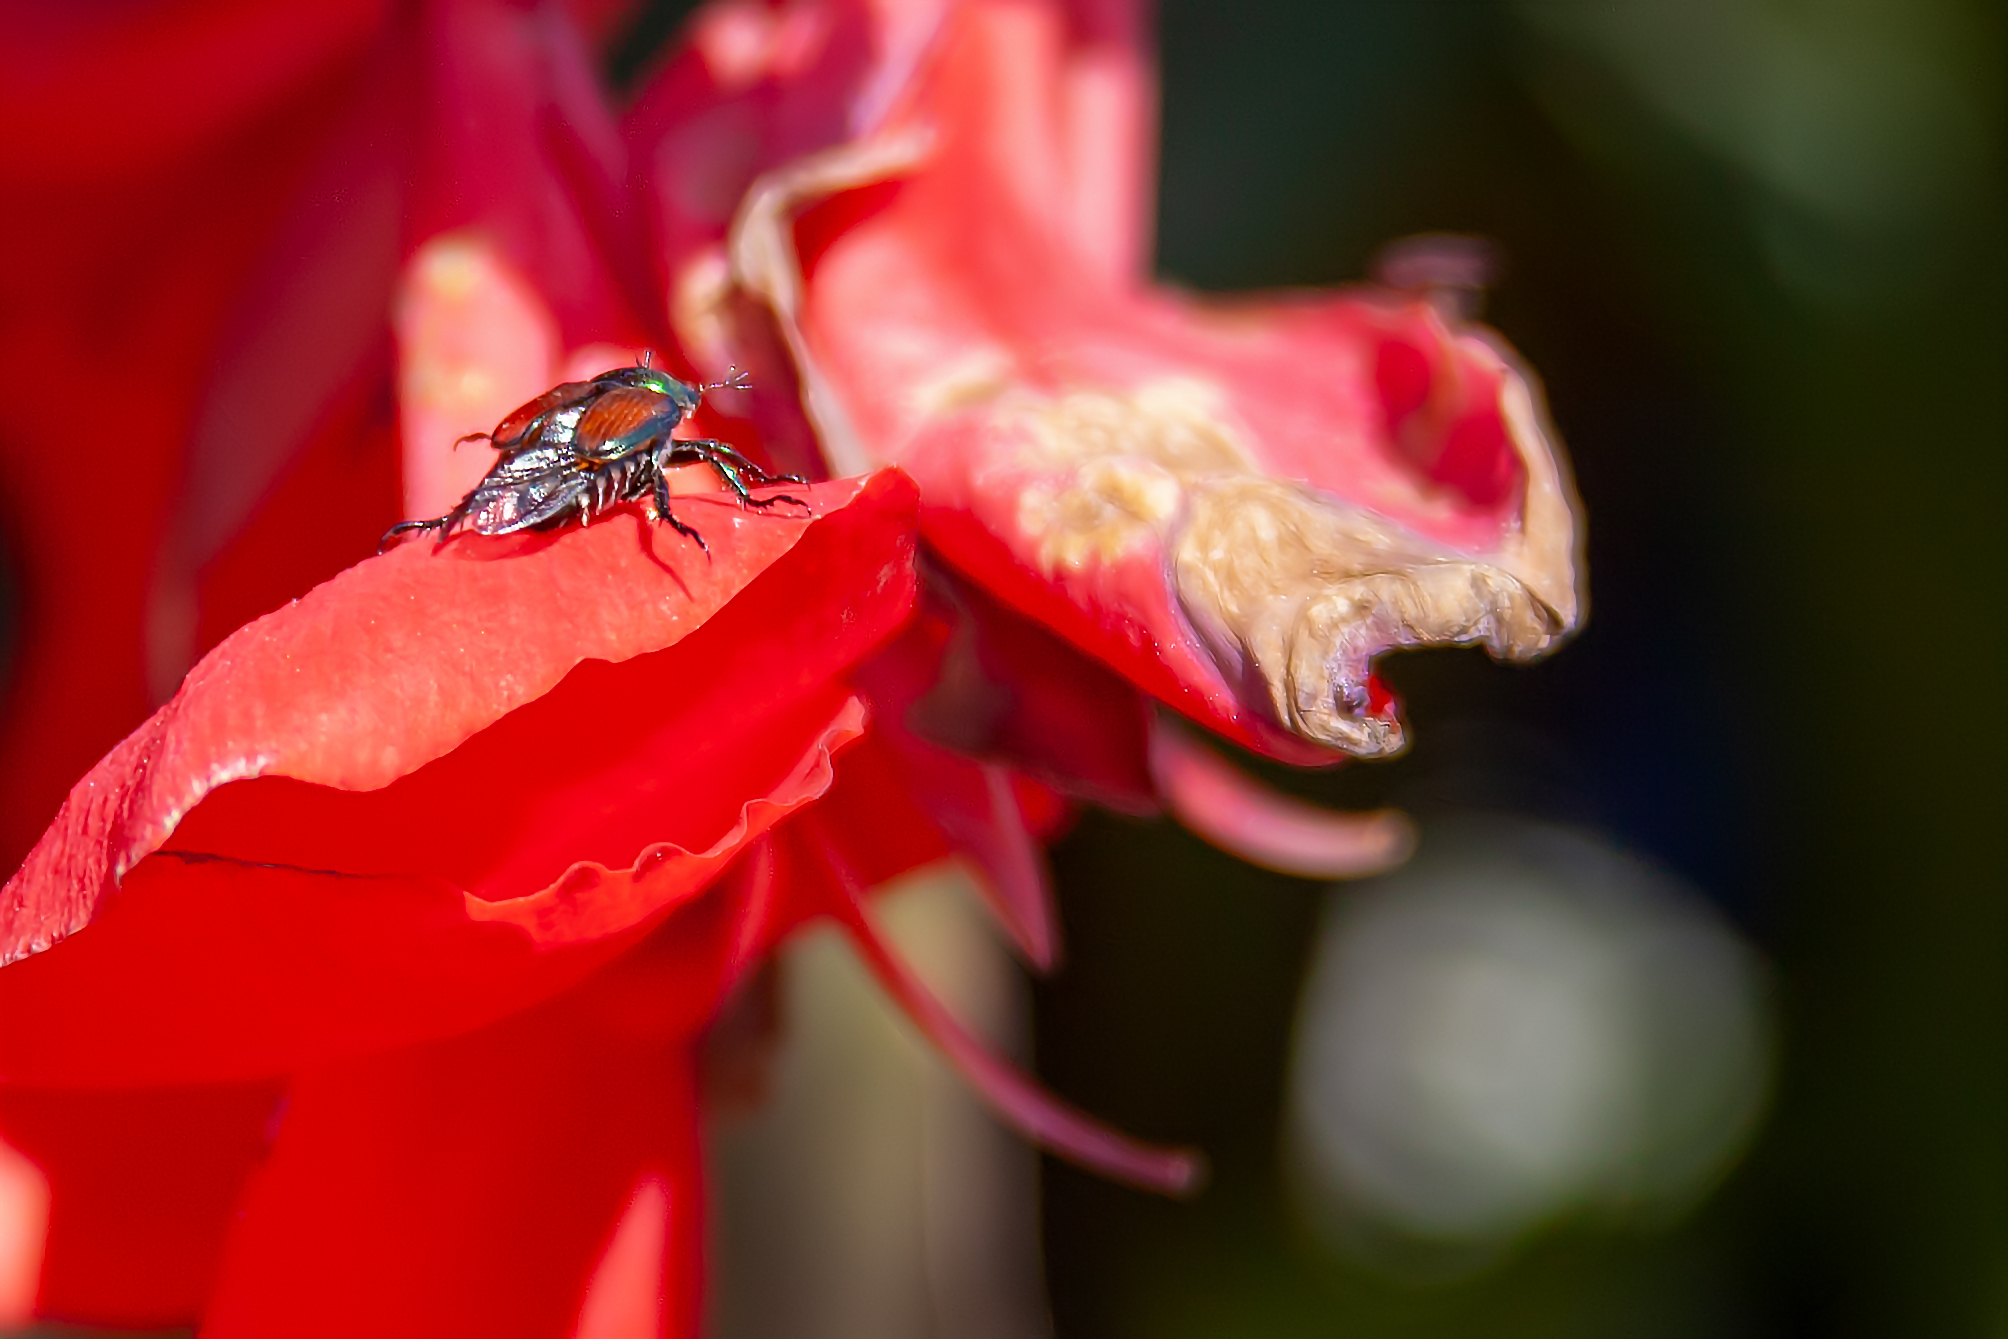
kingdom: Animalia
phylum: Arthropoda
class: Insecta
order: Coleoptera
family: Scarabaeidae
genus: Popillia
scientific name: Popillia japonica
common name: Japanese beetle
